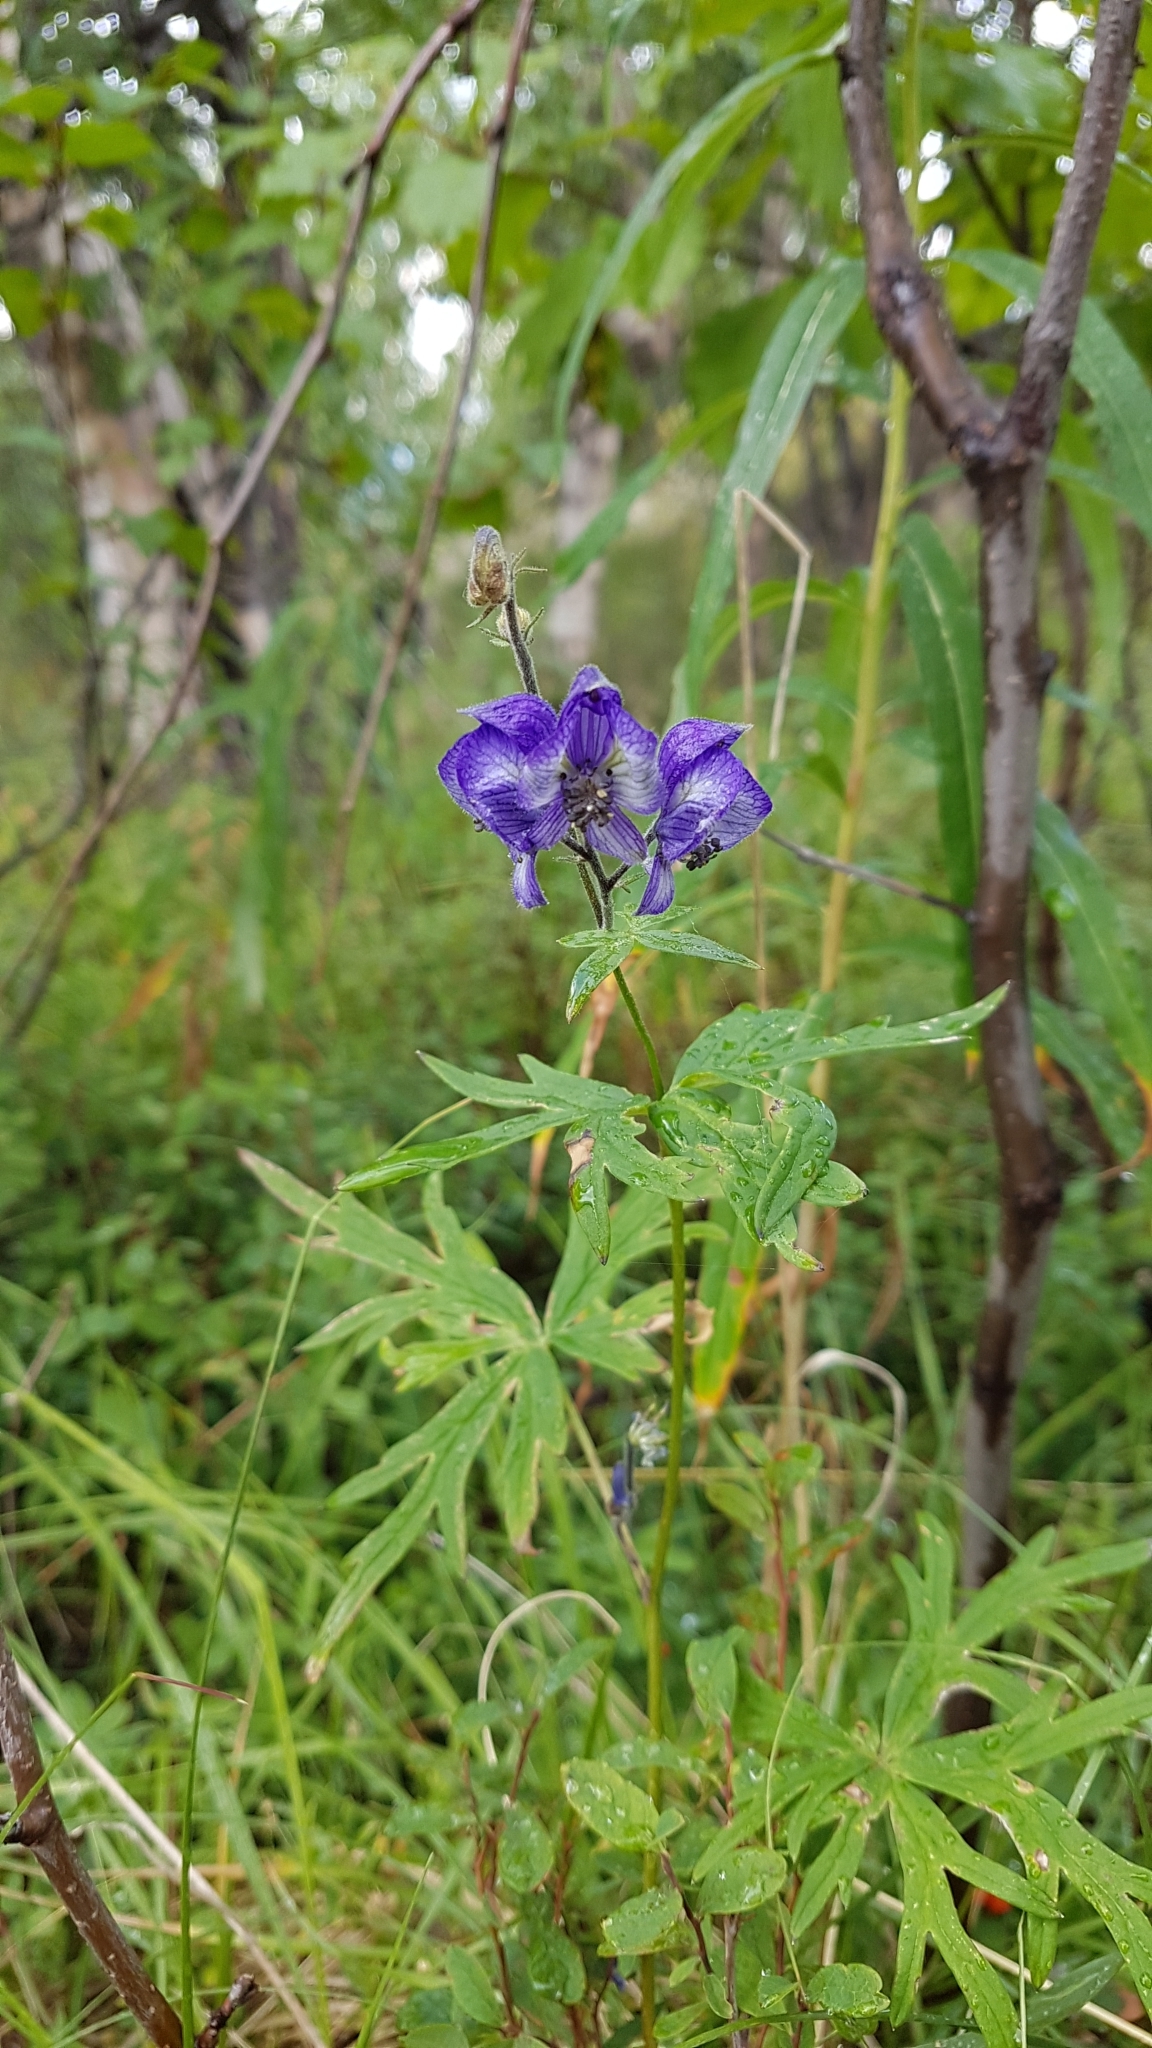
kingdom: Plantae
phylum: Tracheophyta
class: Magnoliopsida
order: Ranunculales
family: Ranunculaceae
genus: Aconitum
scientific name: Aconitum delphiniifolium
